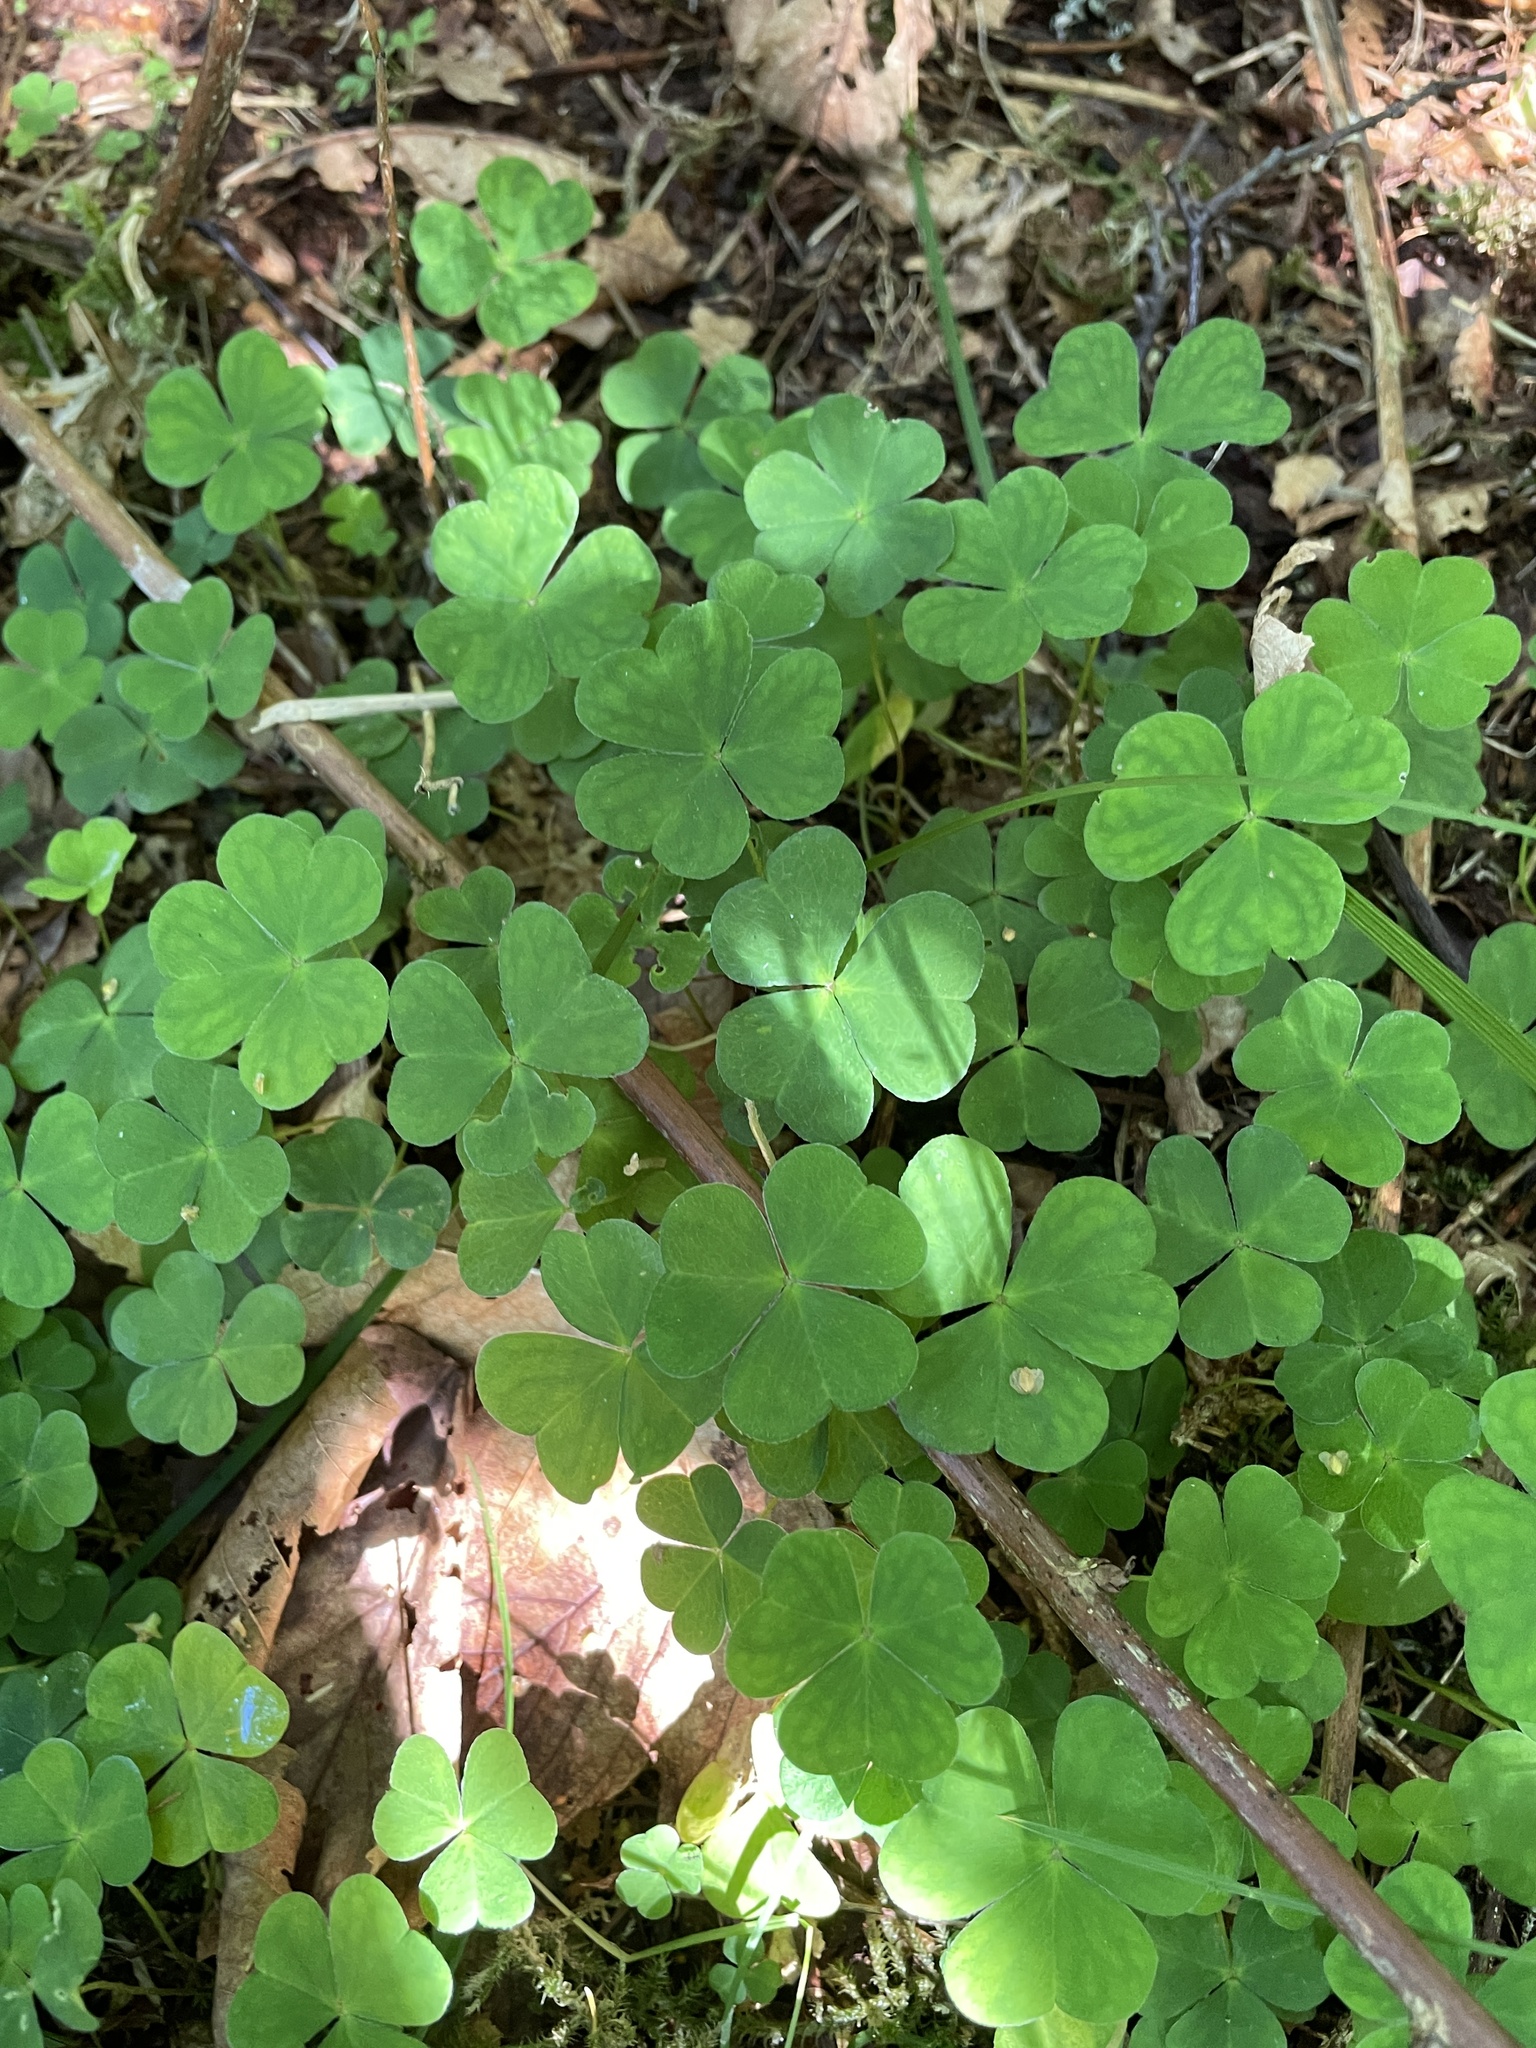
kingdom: Plantae
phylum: Tracheophyta
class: Magnoliopsida
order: Oxalidales
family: Oxalidaceae
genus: Oxalis
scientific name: Oxalis acetosella
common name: Wood-sorrel
